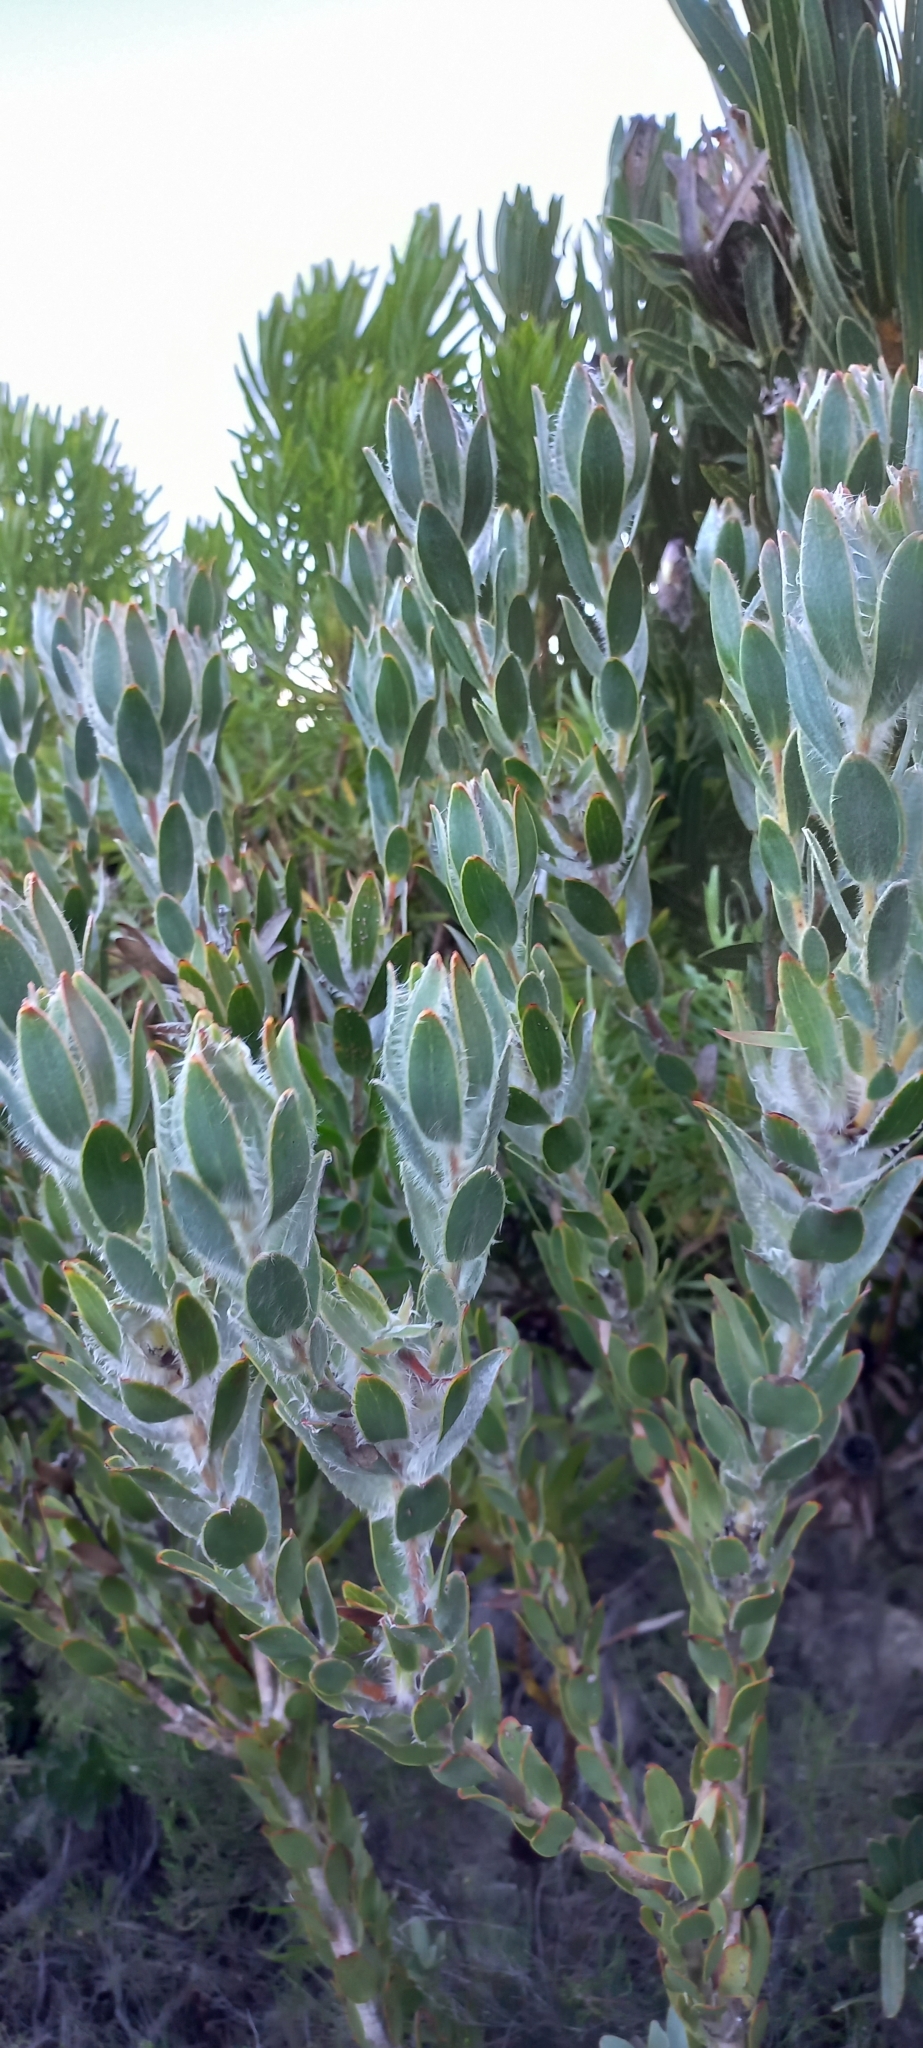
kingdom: Plantae
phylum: Tracheophyta
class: Magnoliopsida
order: Proteales
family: Proteaceae
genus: Leucadendron
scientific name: Leucadendron nervosum
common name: Silky-ruff conebush
